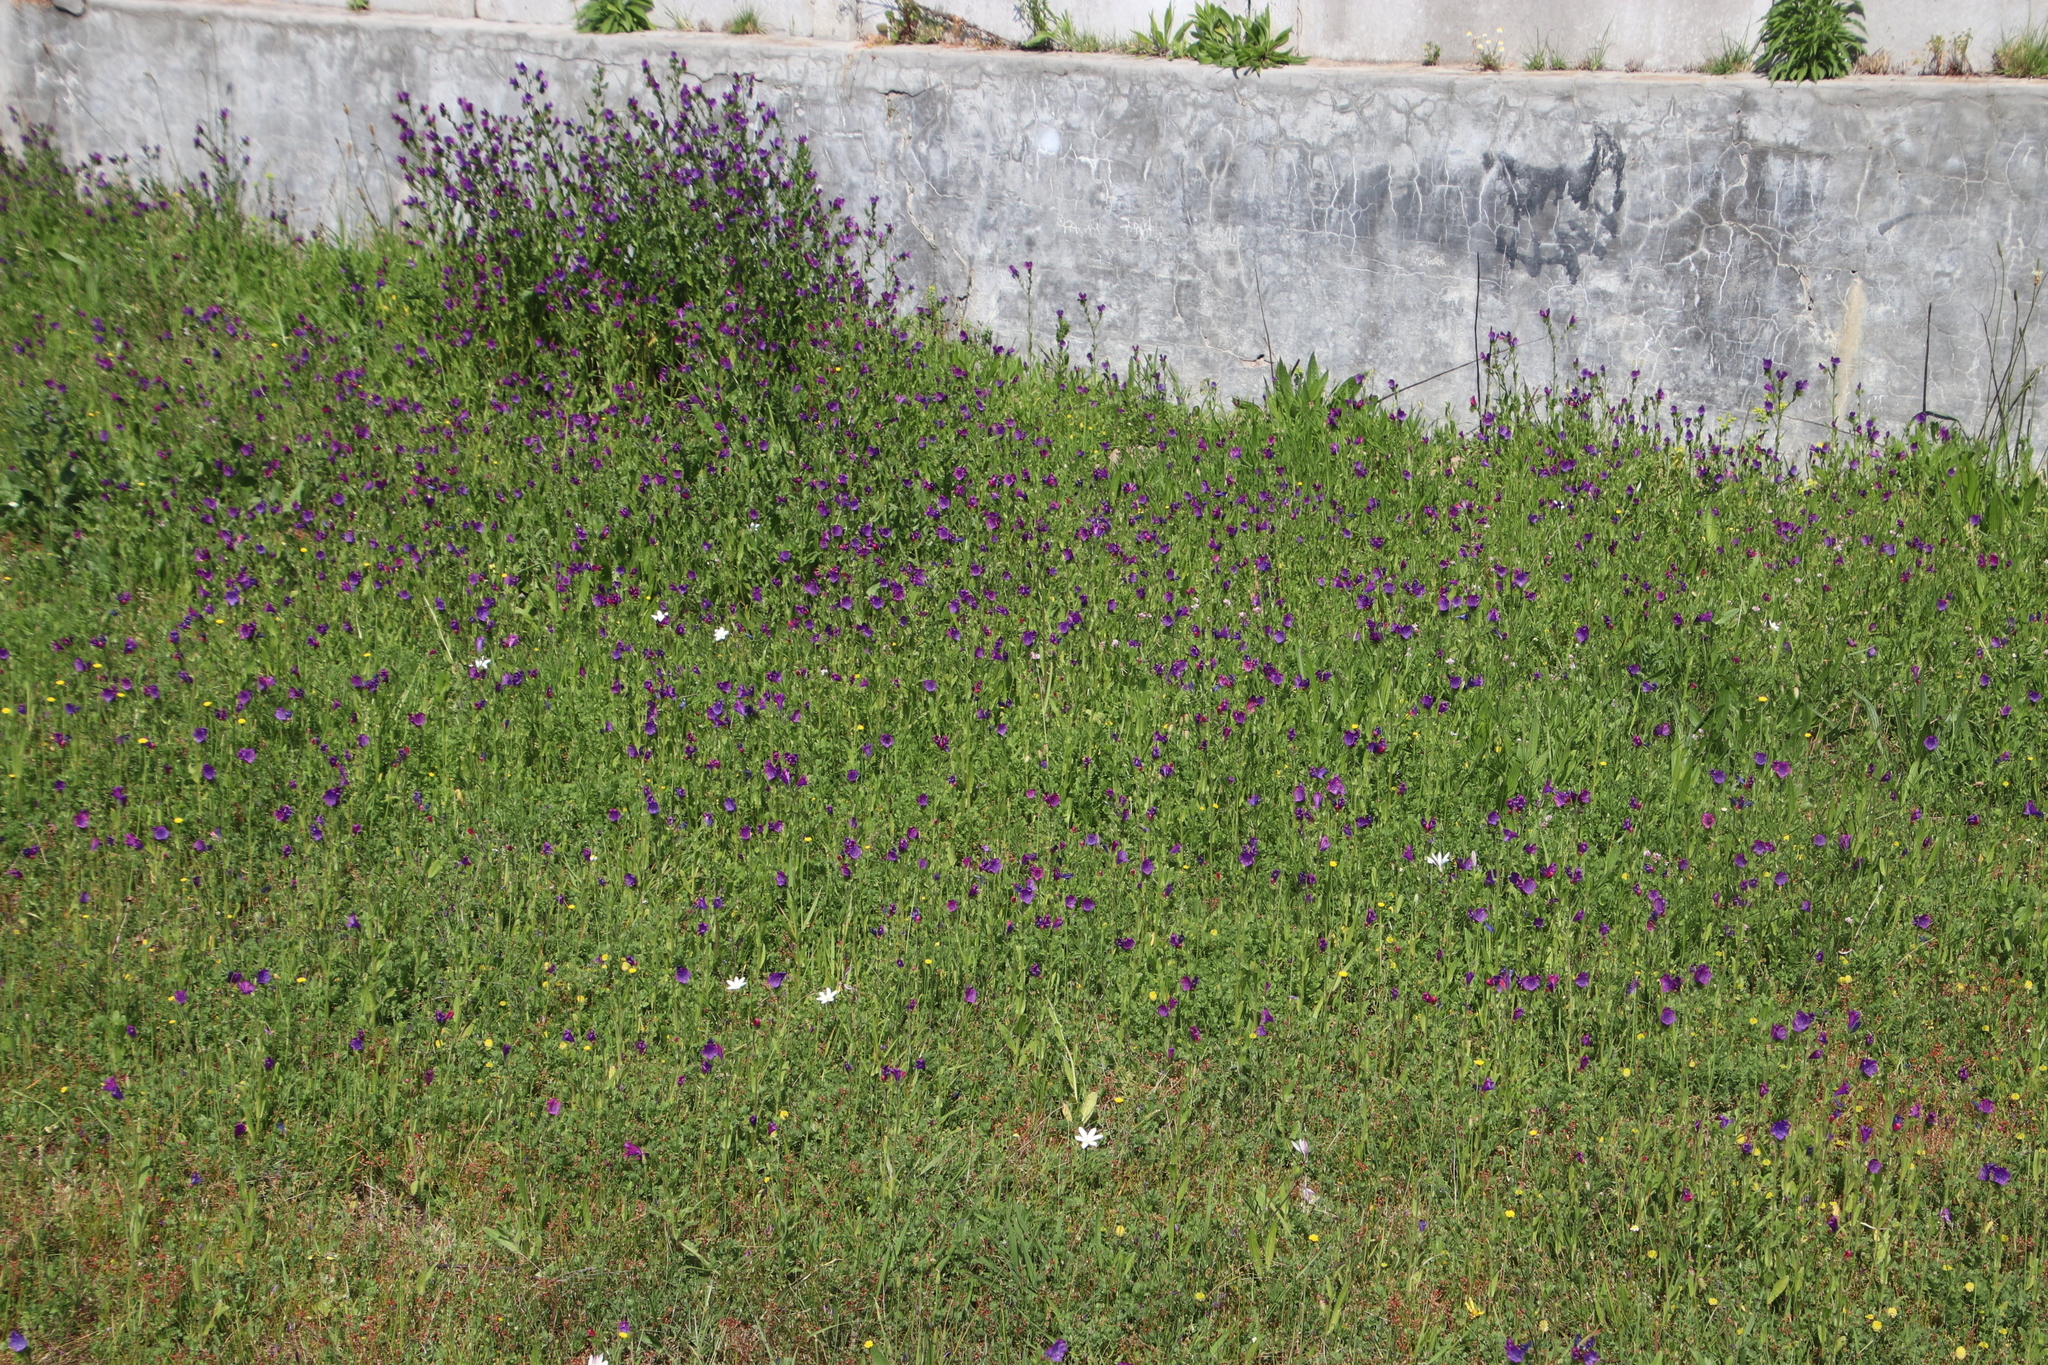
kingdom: Plantae
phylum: Tracheophyta
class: Magnoliopsida
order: Boraginales
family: Boraginaceae
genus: Echium
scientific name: Echium plantagineum
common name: Purple viper's-bugloss
